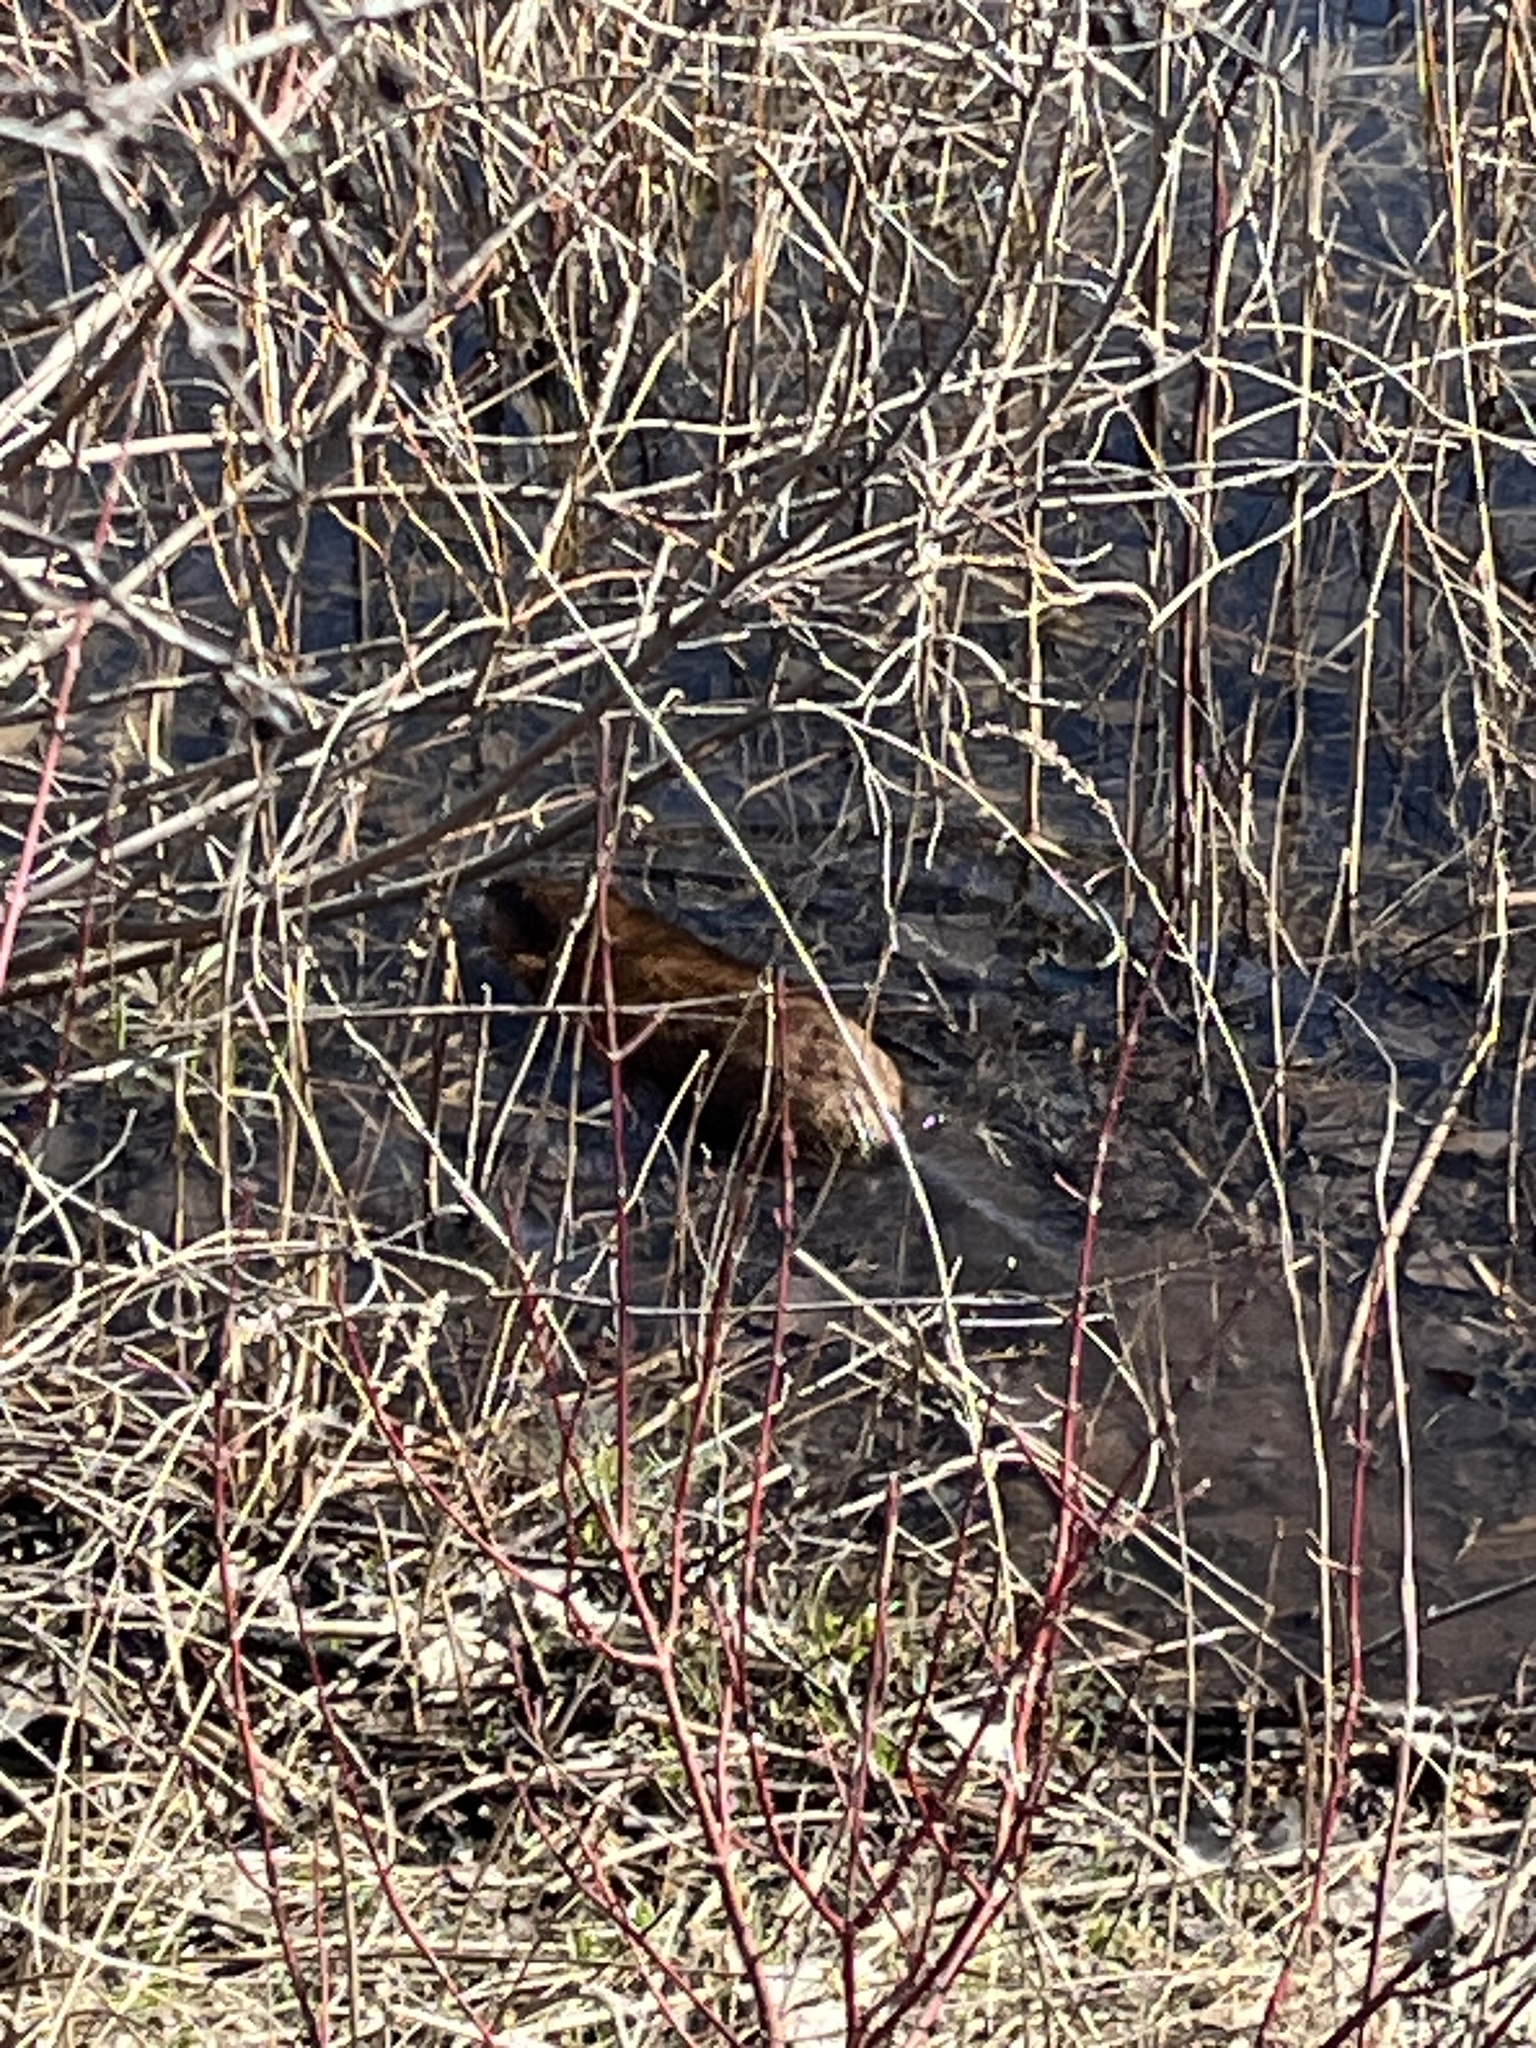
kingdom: Animalia
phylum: Chordata
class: Mammalia
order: Rodentia
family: Cricetidae
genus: Ondatra
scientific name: Ondatra zibethicus
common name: Muskrat
